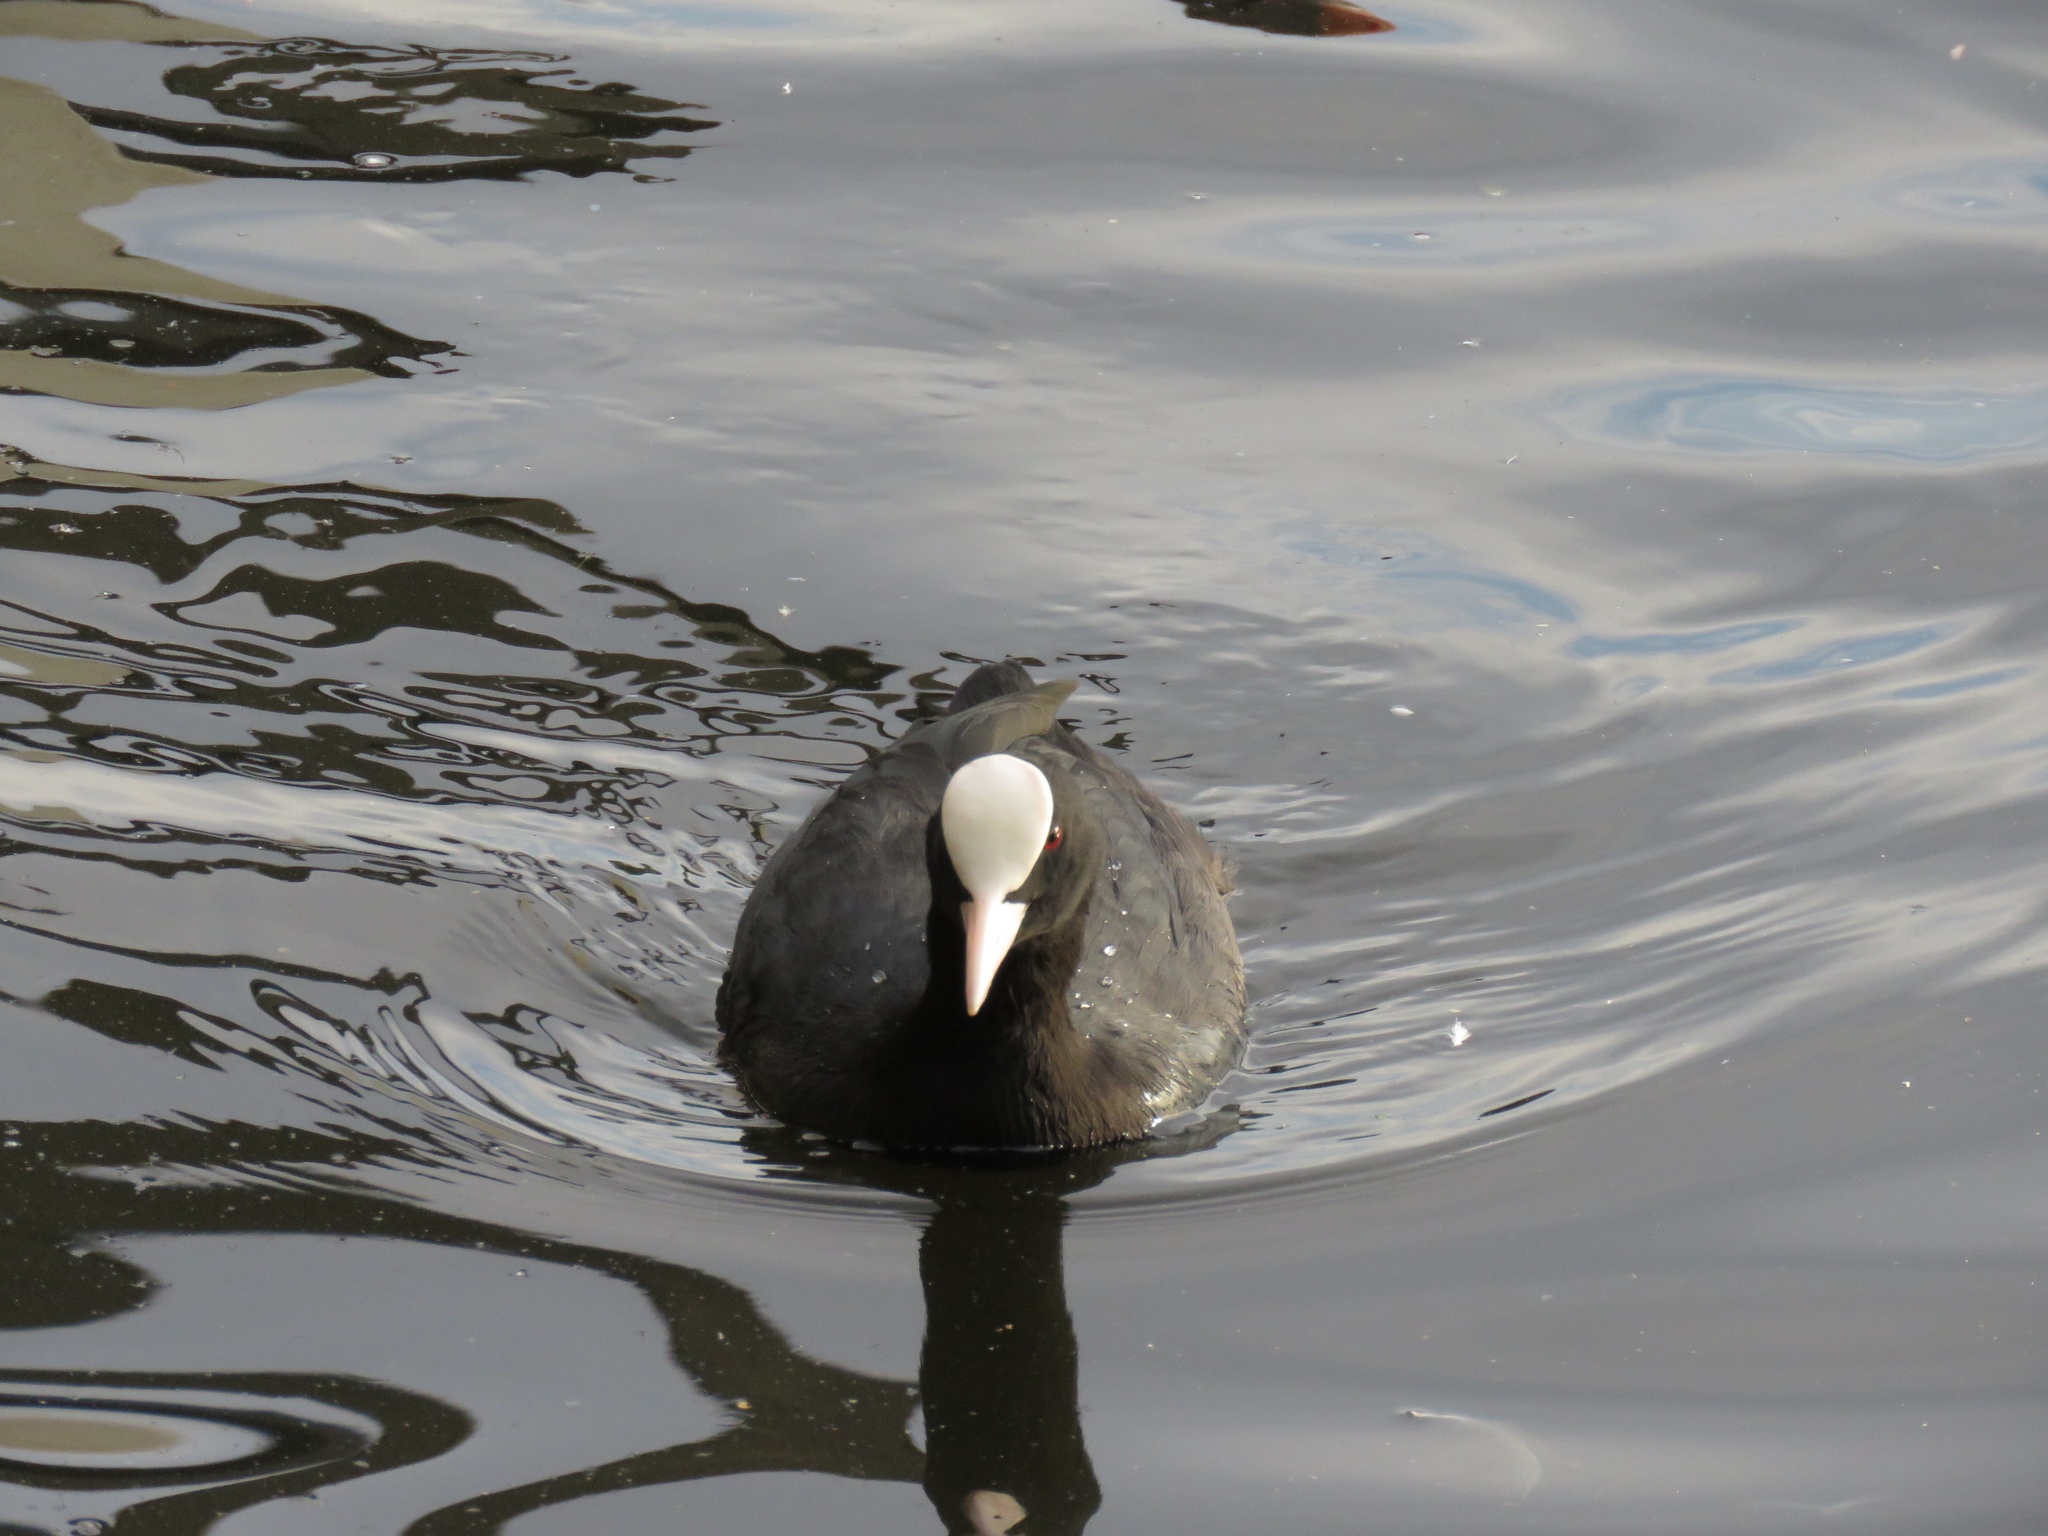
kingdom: Animalia
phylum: Chordata
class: Aves
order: Gruiformes
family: Rallidae
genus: Fulica
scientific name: Fulica atra
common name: Eurasian coot
